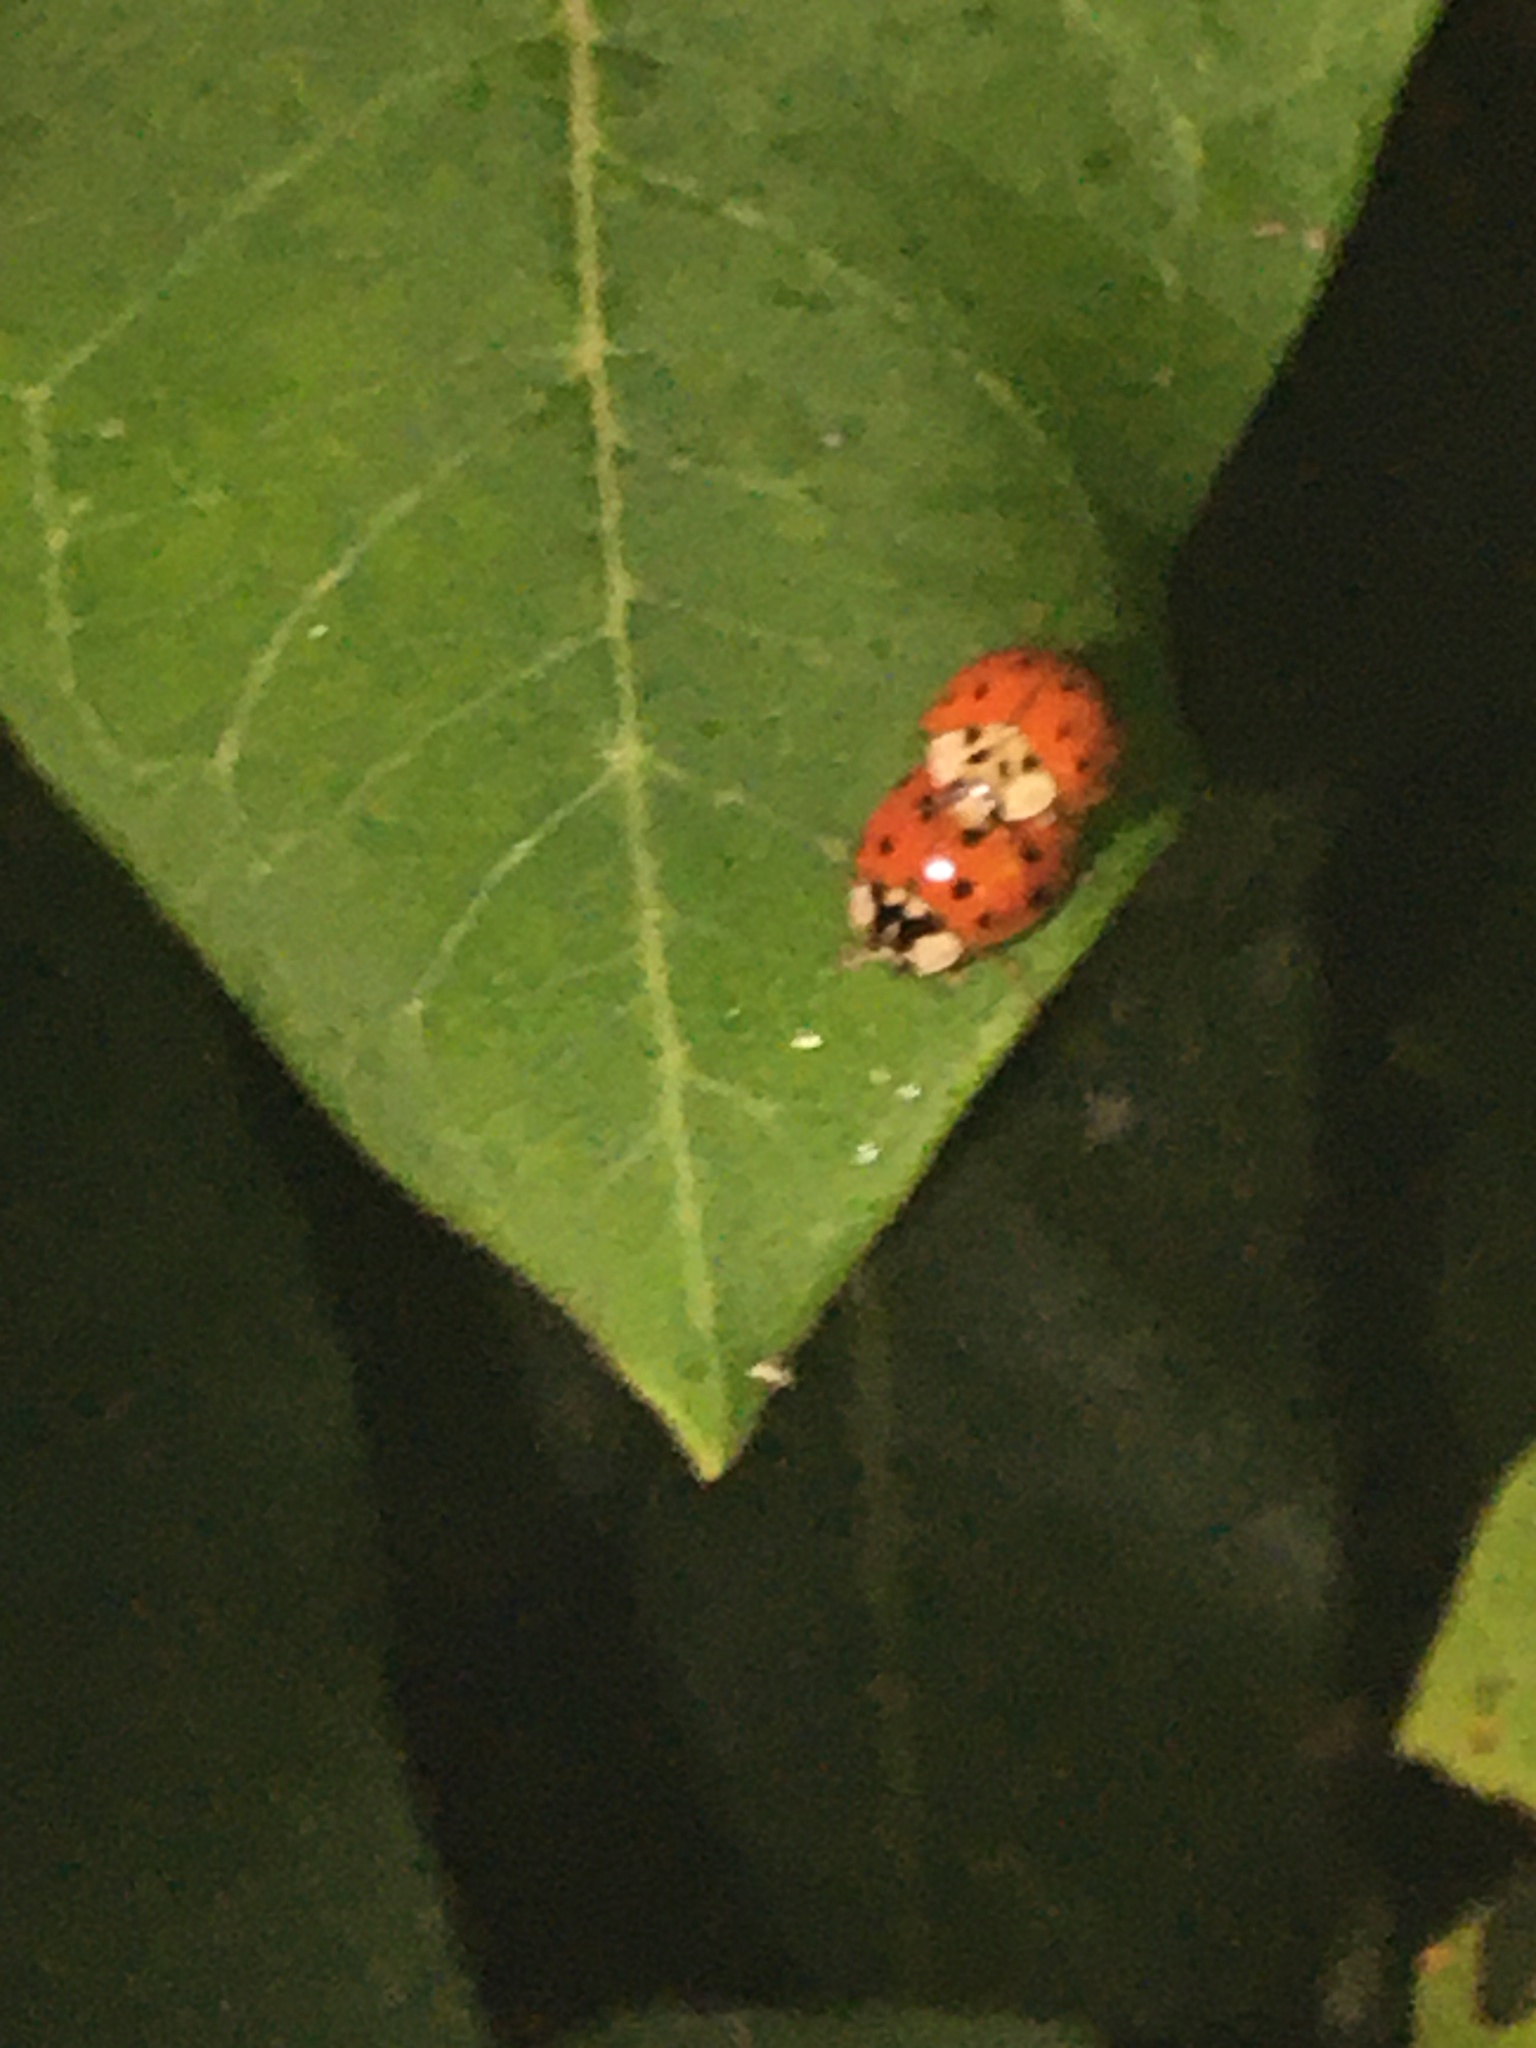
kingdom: Animalia
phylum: Arthropoda
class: Insecta
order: Coleoptera
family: Coccinellidae
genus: Harmonia
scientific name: Harmonia axyridis
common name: Harlequin ladybird
